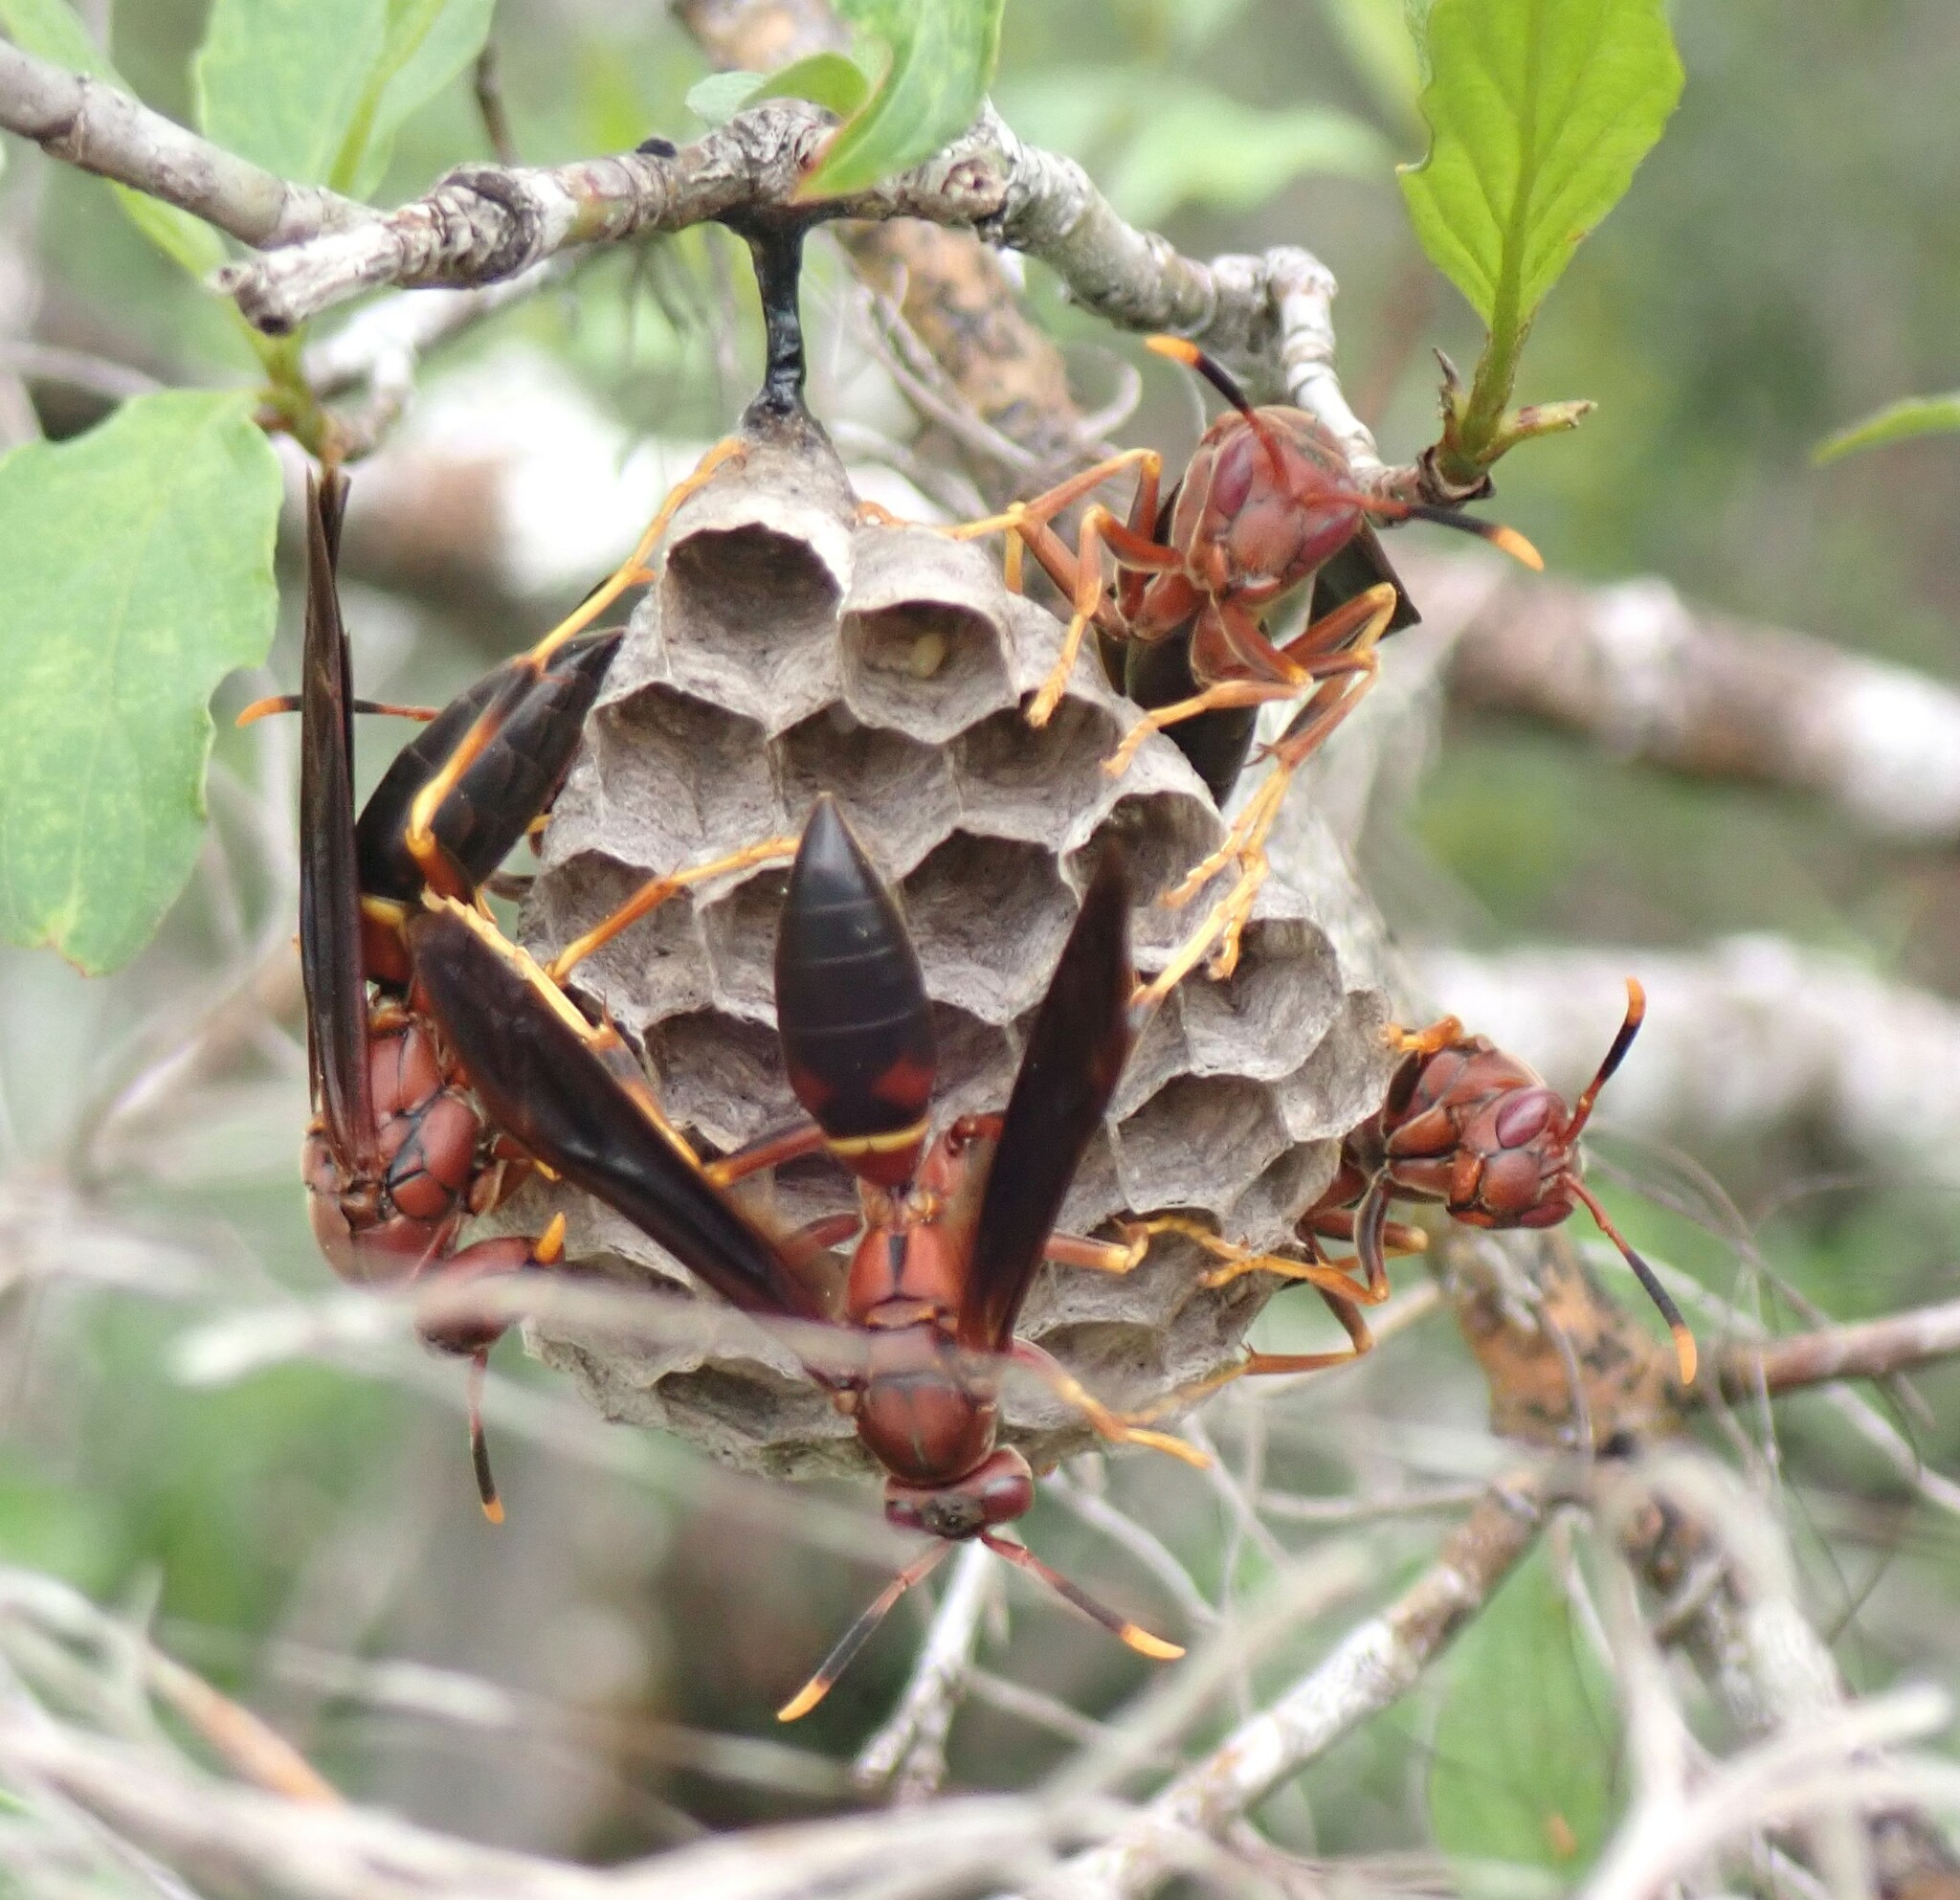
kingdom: Animalia
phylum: Arthropoda
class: Insecta
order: Hymenoptera
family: Eumenidae
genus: Polistes
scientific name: Polistes annularis
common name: Ringed paper wasp
